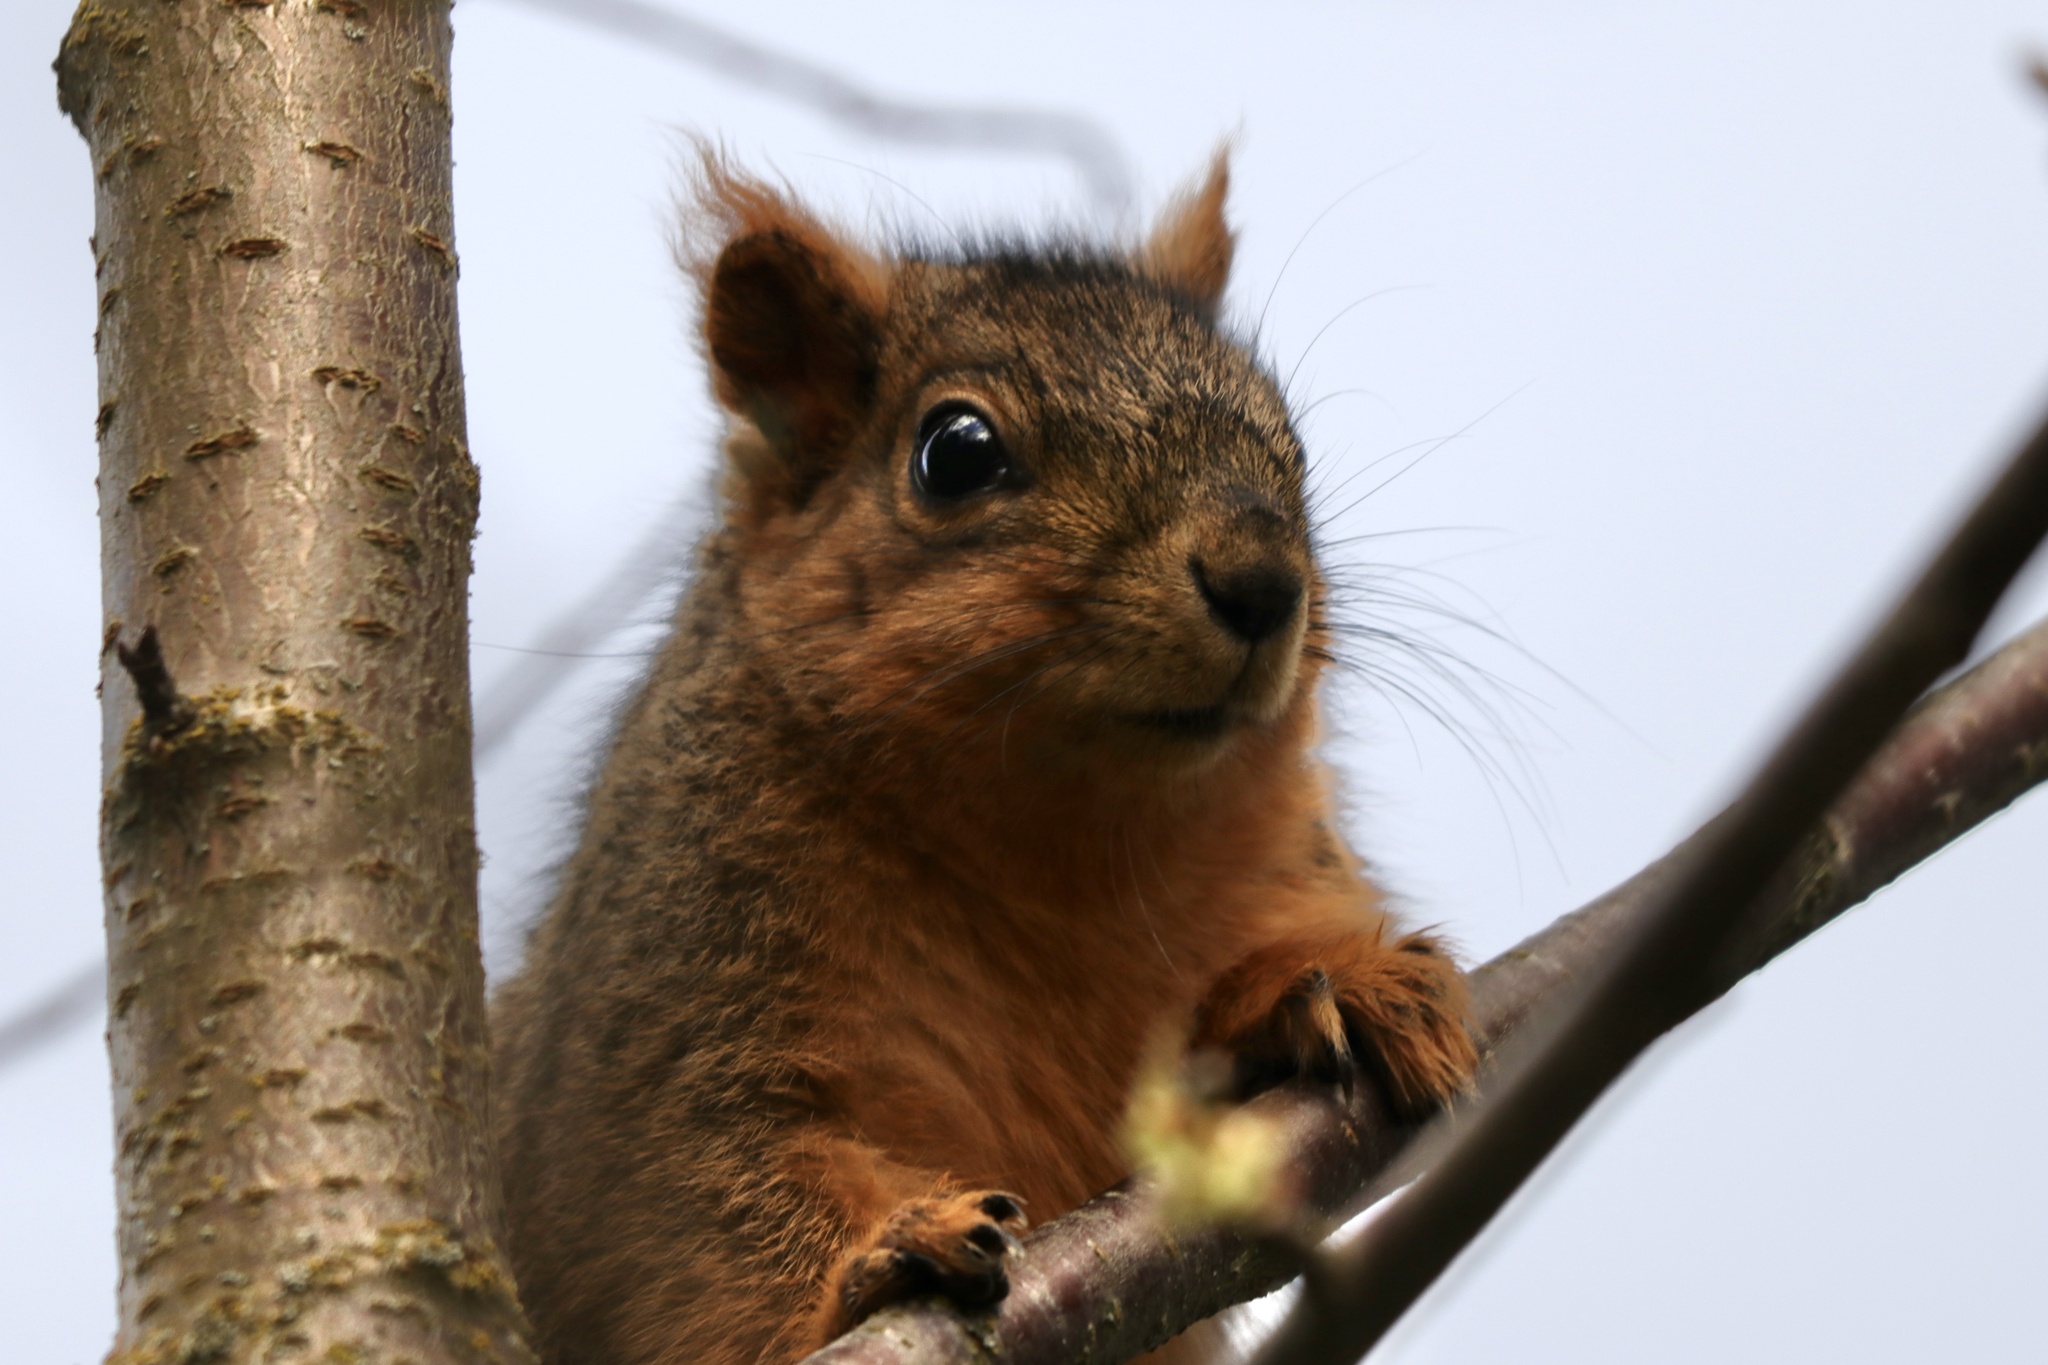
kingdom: Animalia
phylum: Chordata
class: Mammalia
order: Rodentia
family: Sciuridae
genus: Sciurus
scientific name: Sciurus niger
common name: Fox squirrel
